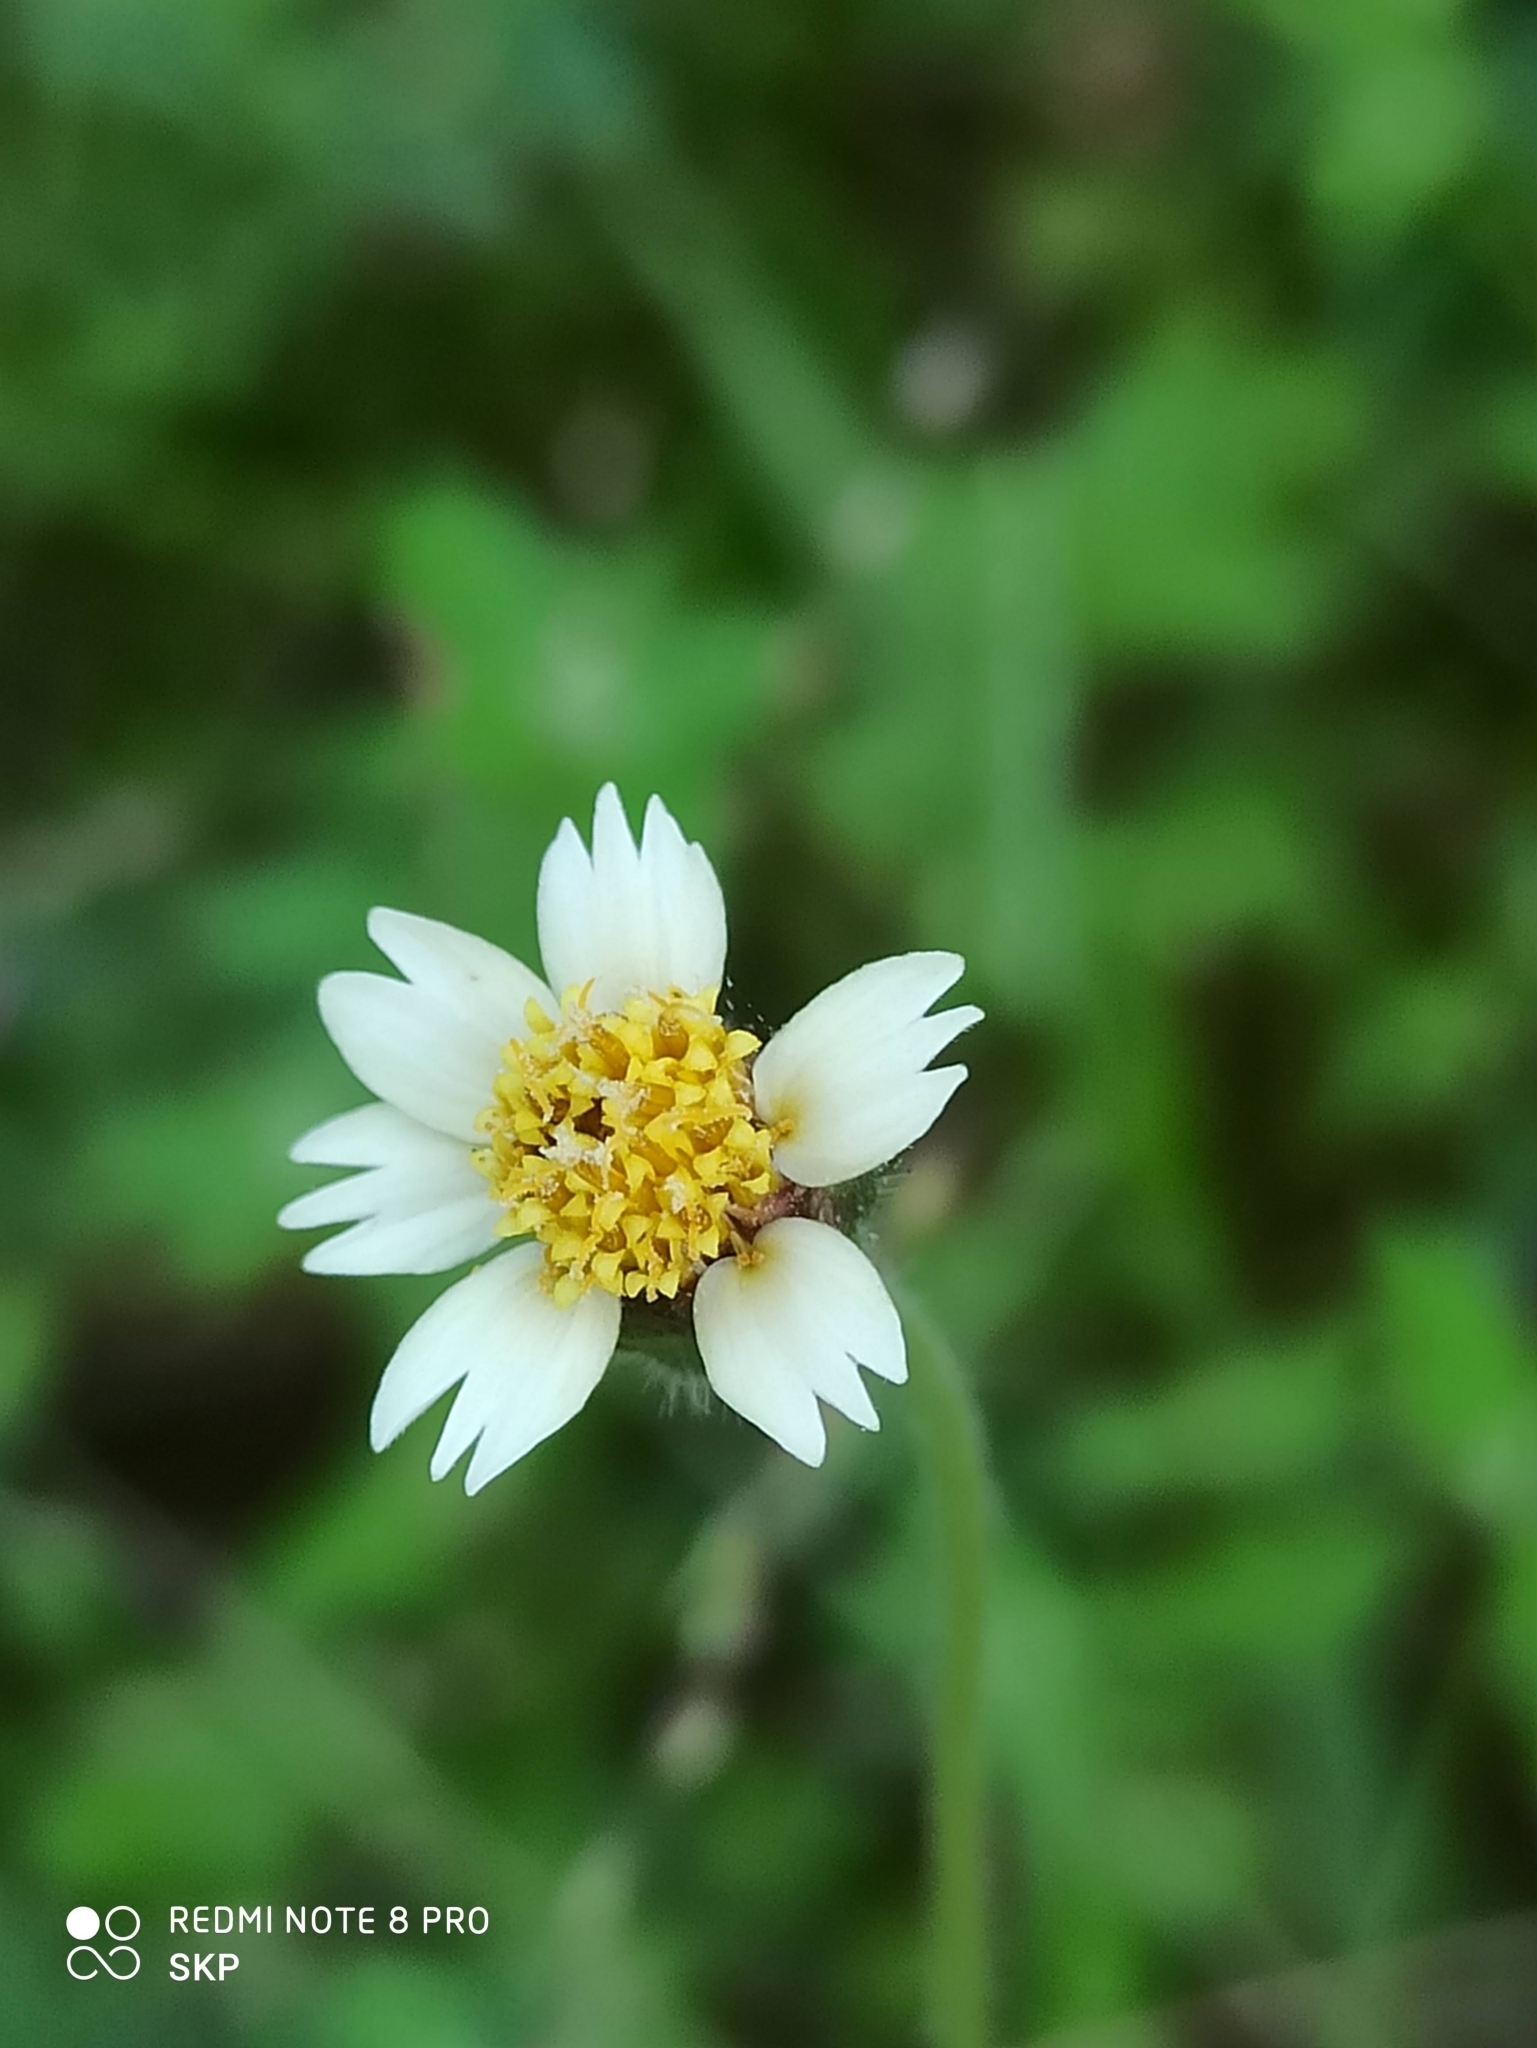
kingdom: Plantae
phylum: Tracheophyta
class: Magnoliopsida
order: Asterales
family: Asteraceae
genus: Tridax
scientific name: Tridax procumbens
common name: Coatbuttons
